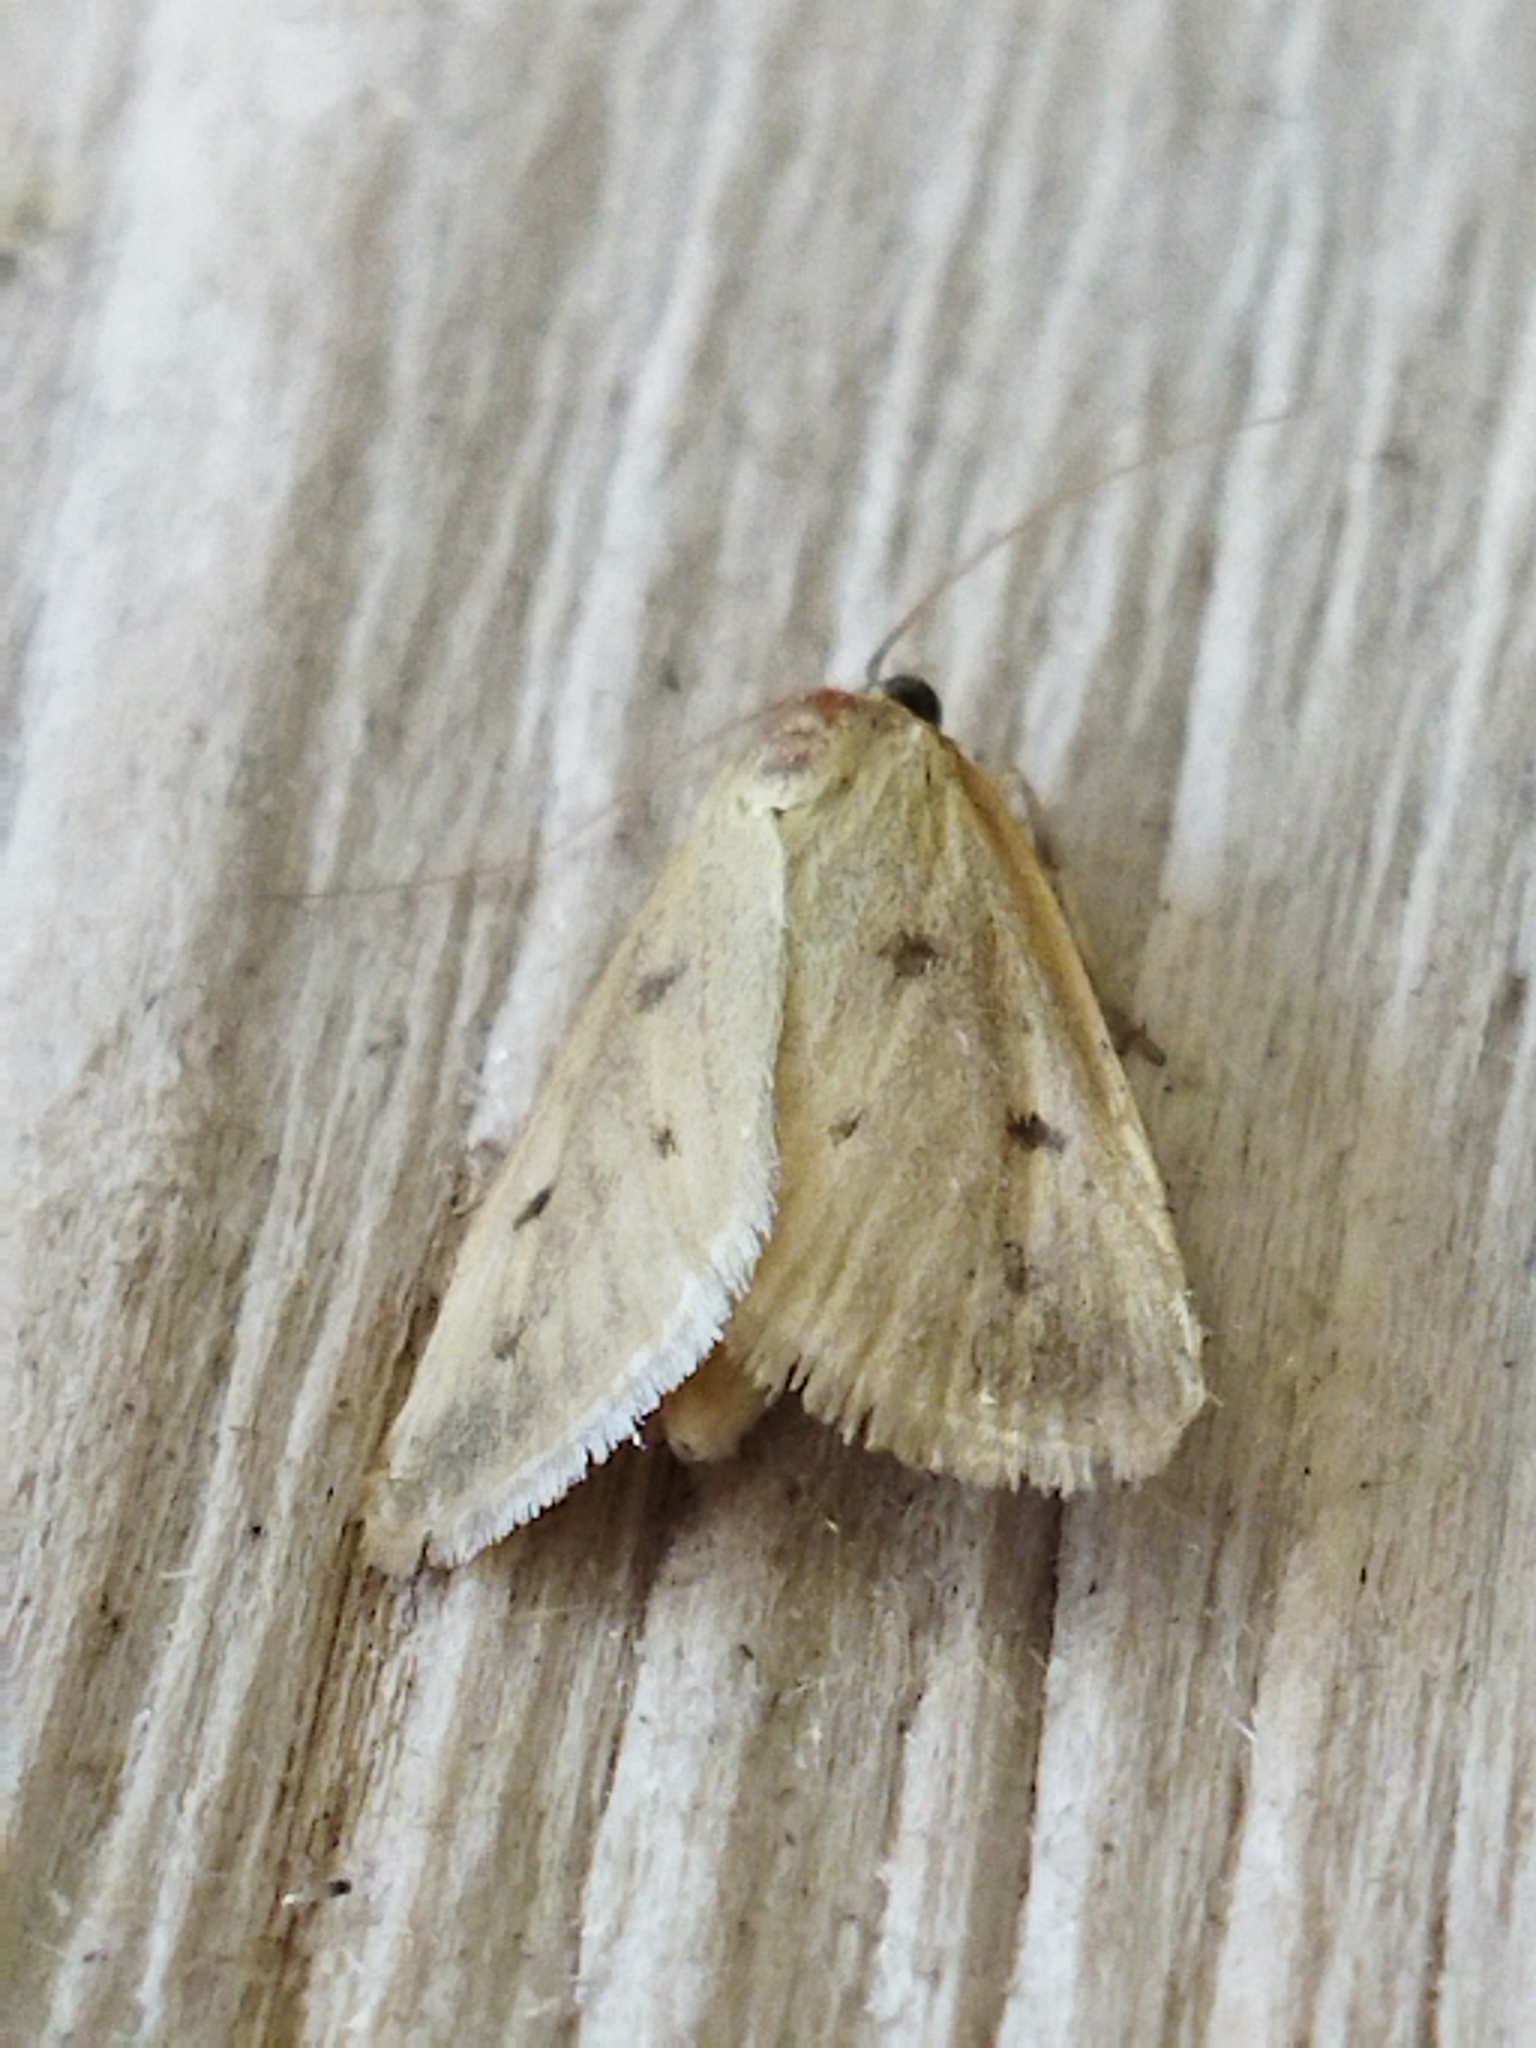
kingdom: Animalia
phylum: Arthropoda
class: Insecta
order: Lepidoptera
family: Crambidae
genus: Achyra
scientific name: Achyra nudalis
